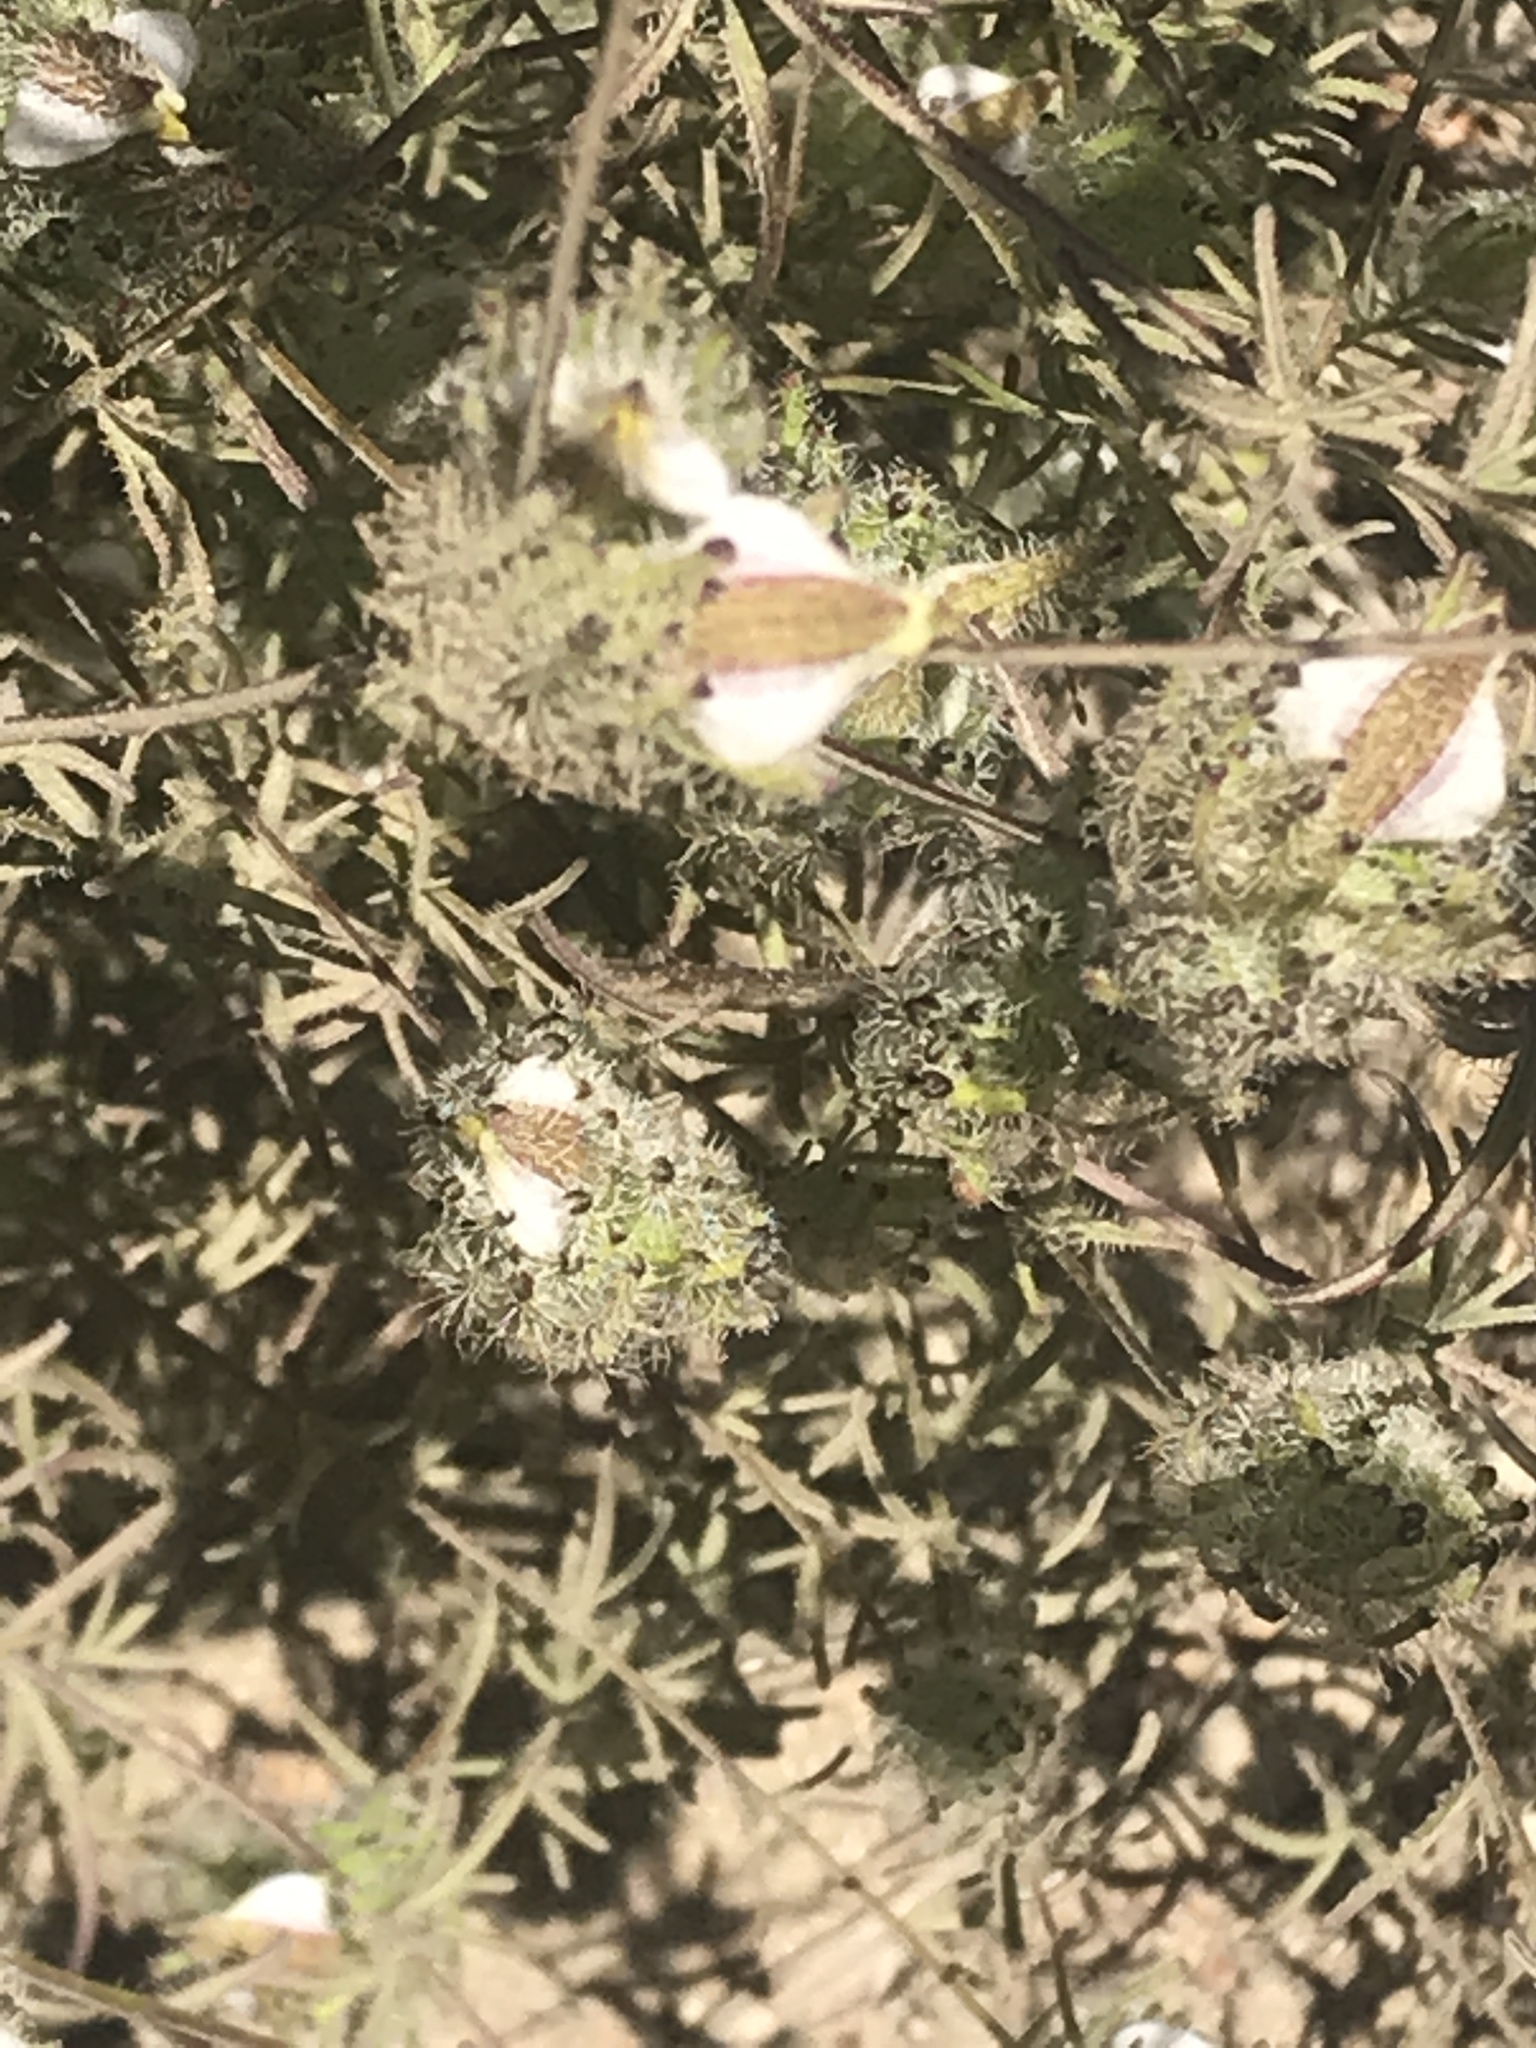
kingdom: Plantae
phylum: Tracheophyta
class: Magnoliopsida
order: Lamiales
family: Orobanchaceae
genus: Cordylanthus
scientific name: Cordylanthus rigidus
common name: Stiff-branch bird's-beak
